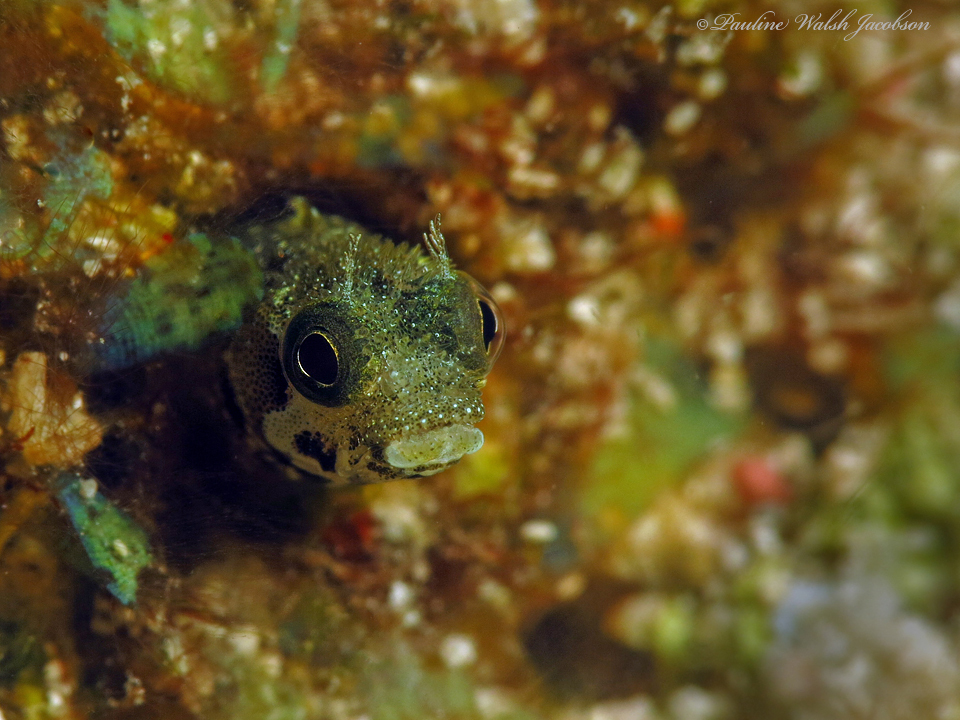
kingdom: Animalia
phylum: Chordata
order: Perciformes
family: Chaenopsidae
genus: Acanthemblemaria
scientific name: Acanthemblemaria spinosa
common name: Spinyhead blenny
